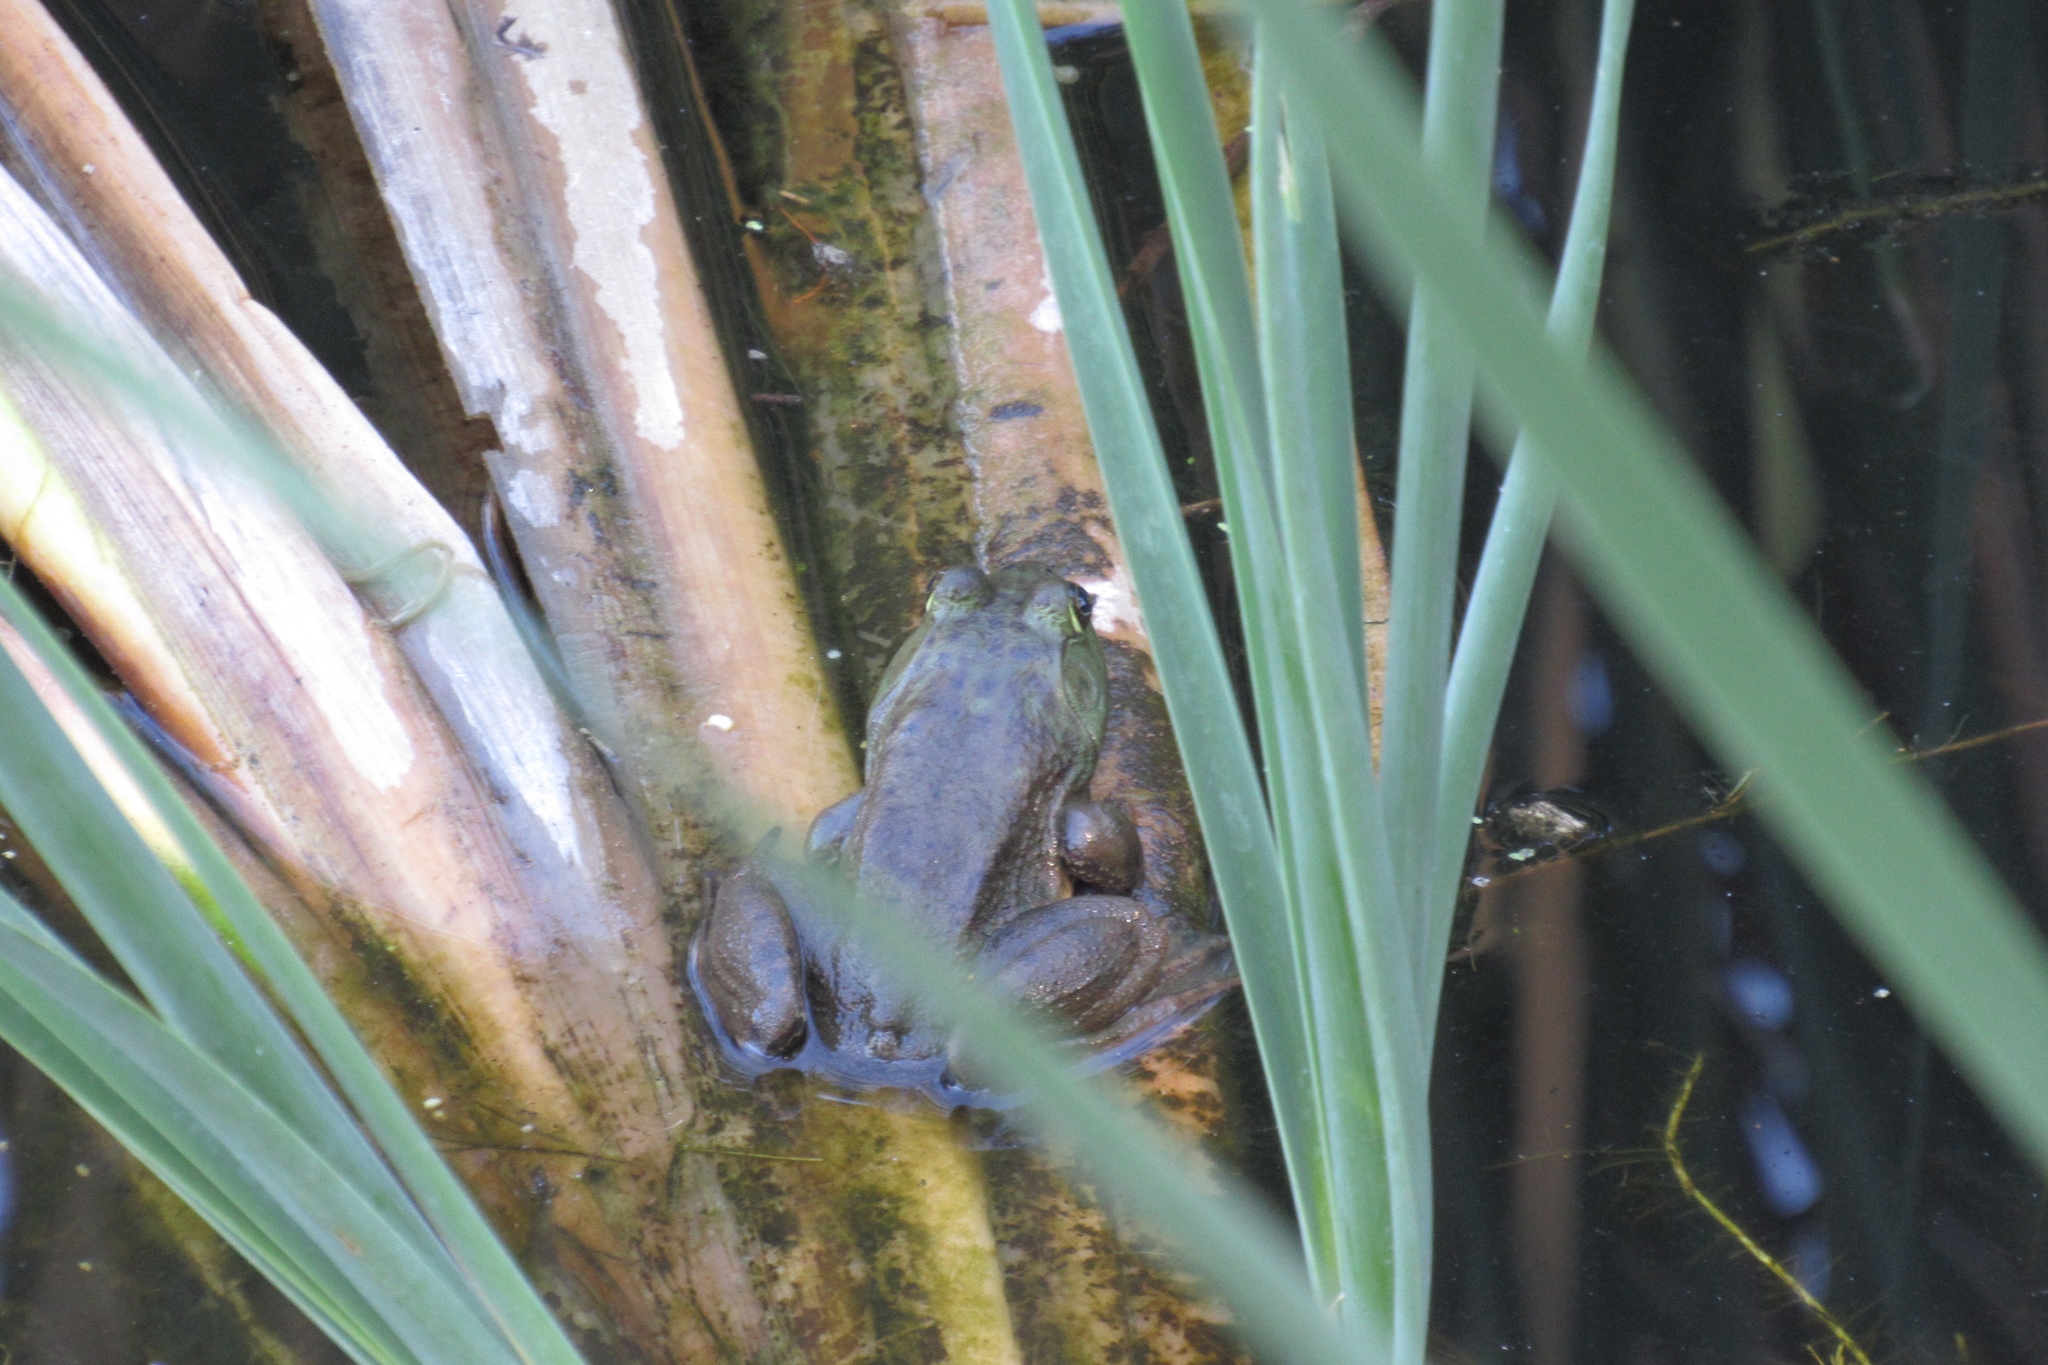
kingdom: Animalia
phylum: Chordata
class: Amphibia
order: Anura
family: Ranidae
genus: Lithobates
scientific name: Lithobates catesbeianus
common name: American bullfrog
